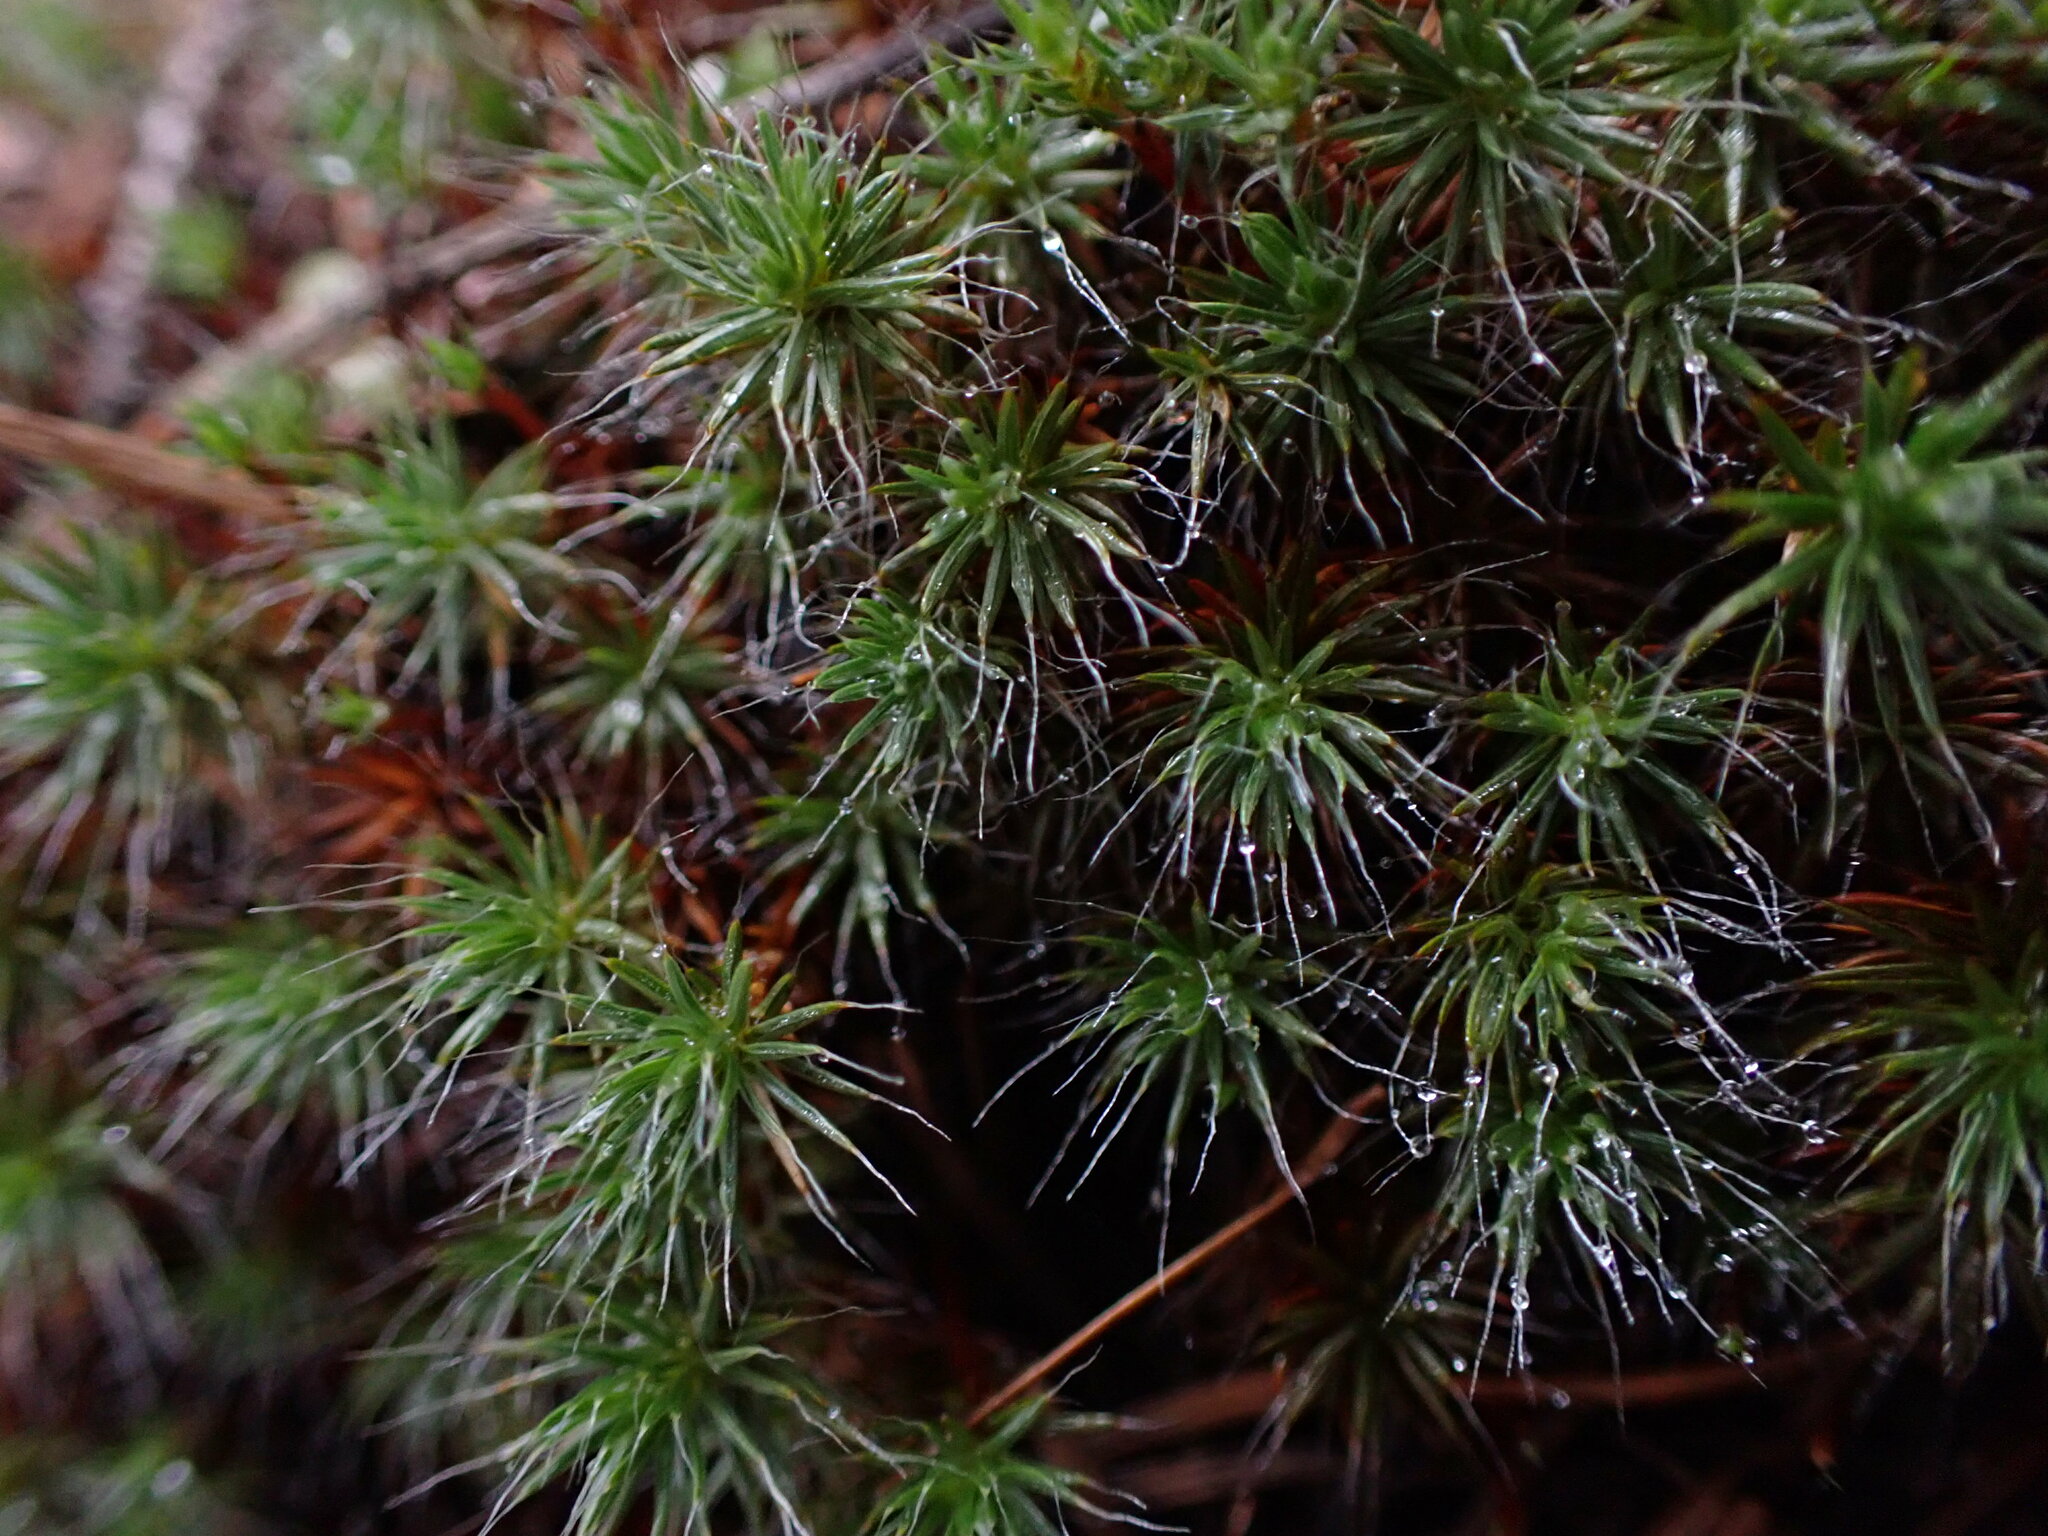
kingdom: Plantae
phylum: Bryophyta
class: Polytrichopsida
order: Polytrichales
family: Polytrichaceae
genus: Polytrichum
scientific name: Polytrichum piliferum
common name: Bristly haircap
